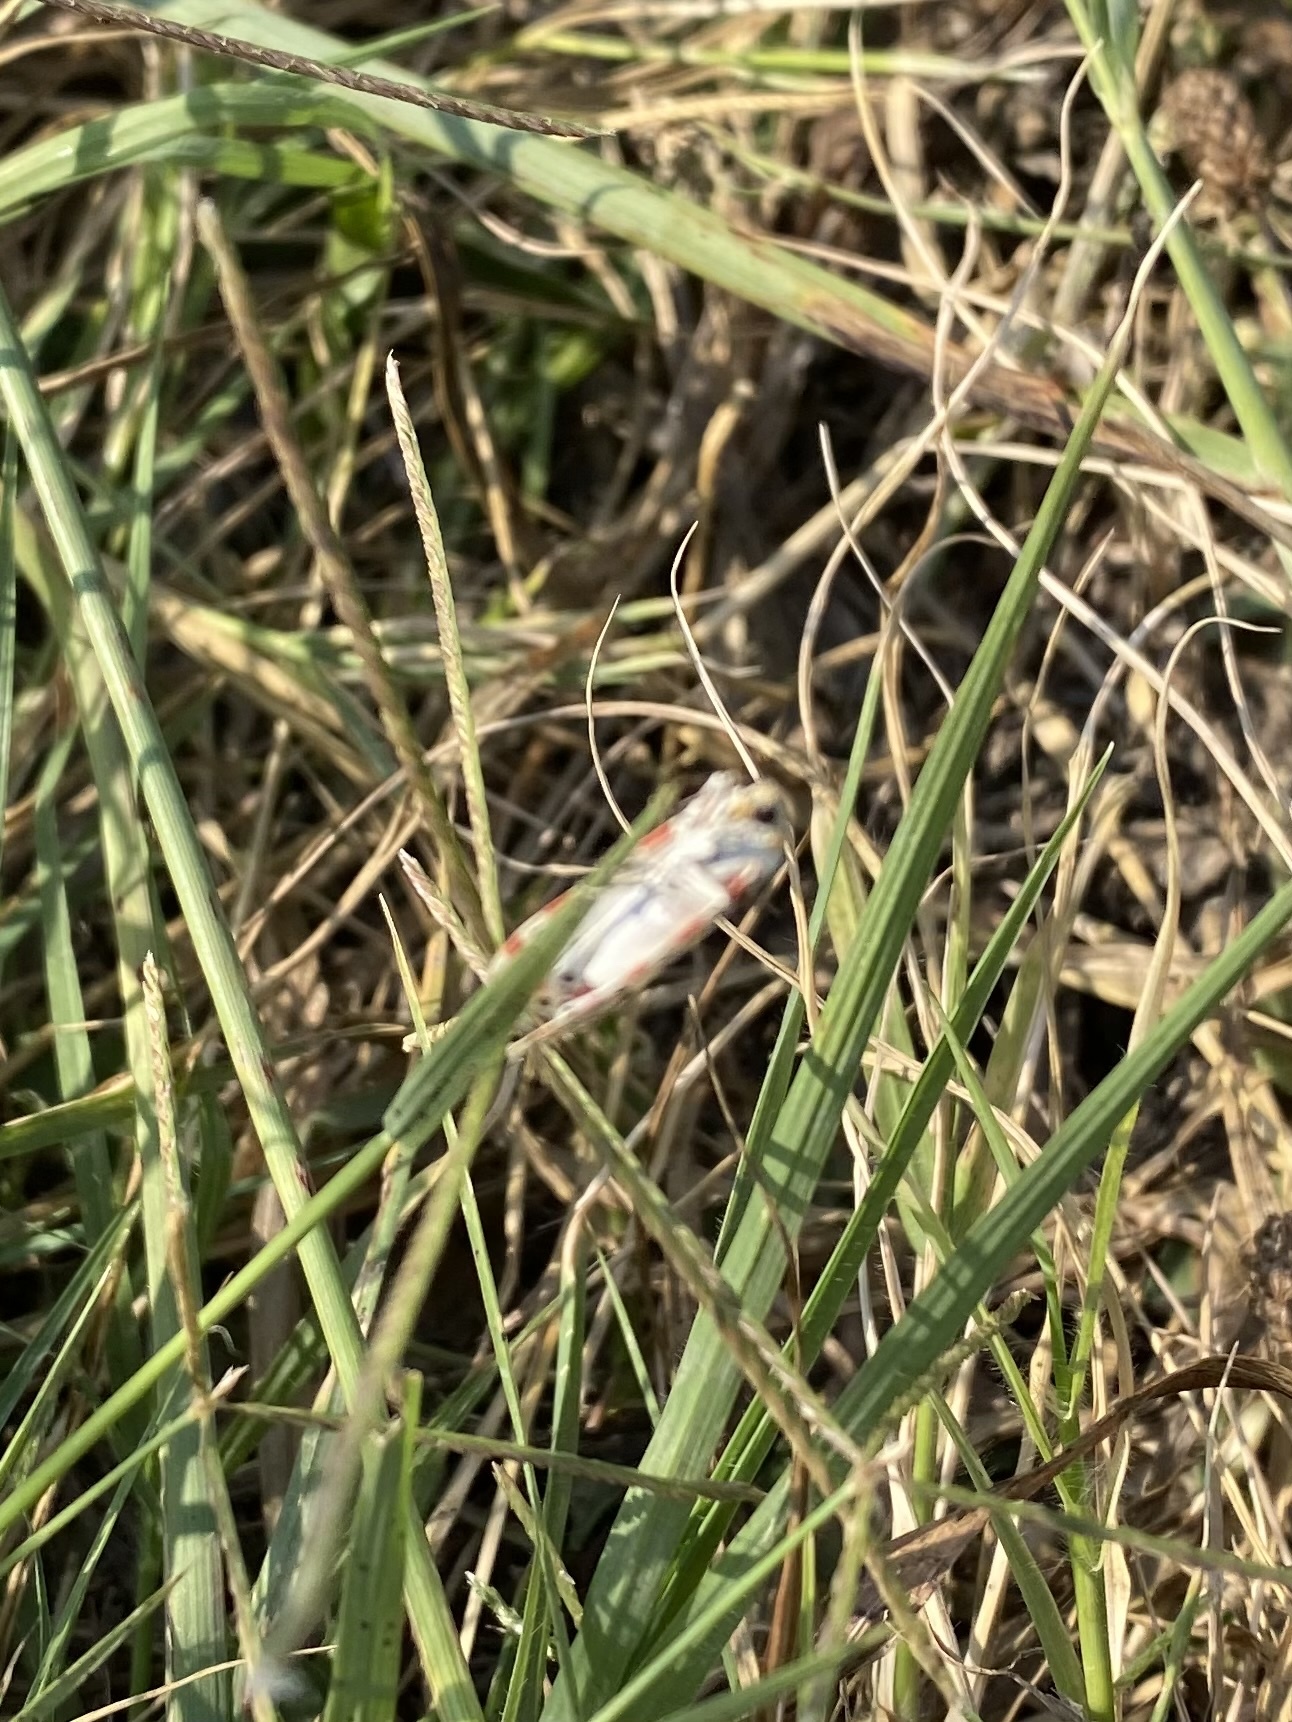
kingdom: Animalia
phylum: Arthropoda
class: Insecta
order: Lepidoptera
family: Erebidae
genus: Utetheisa
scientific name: Utetheisa pulchella
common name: Crimson speckled
